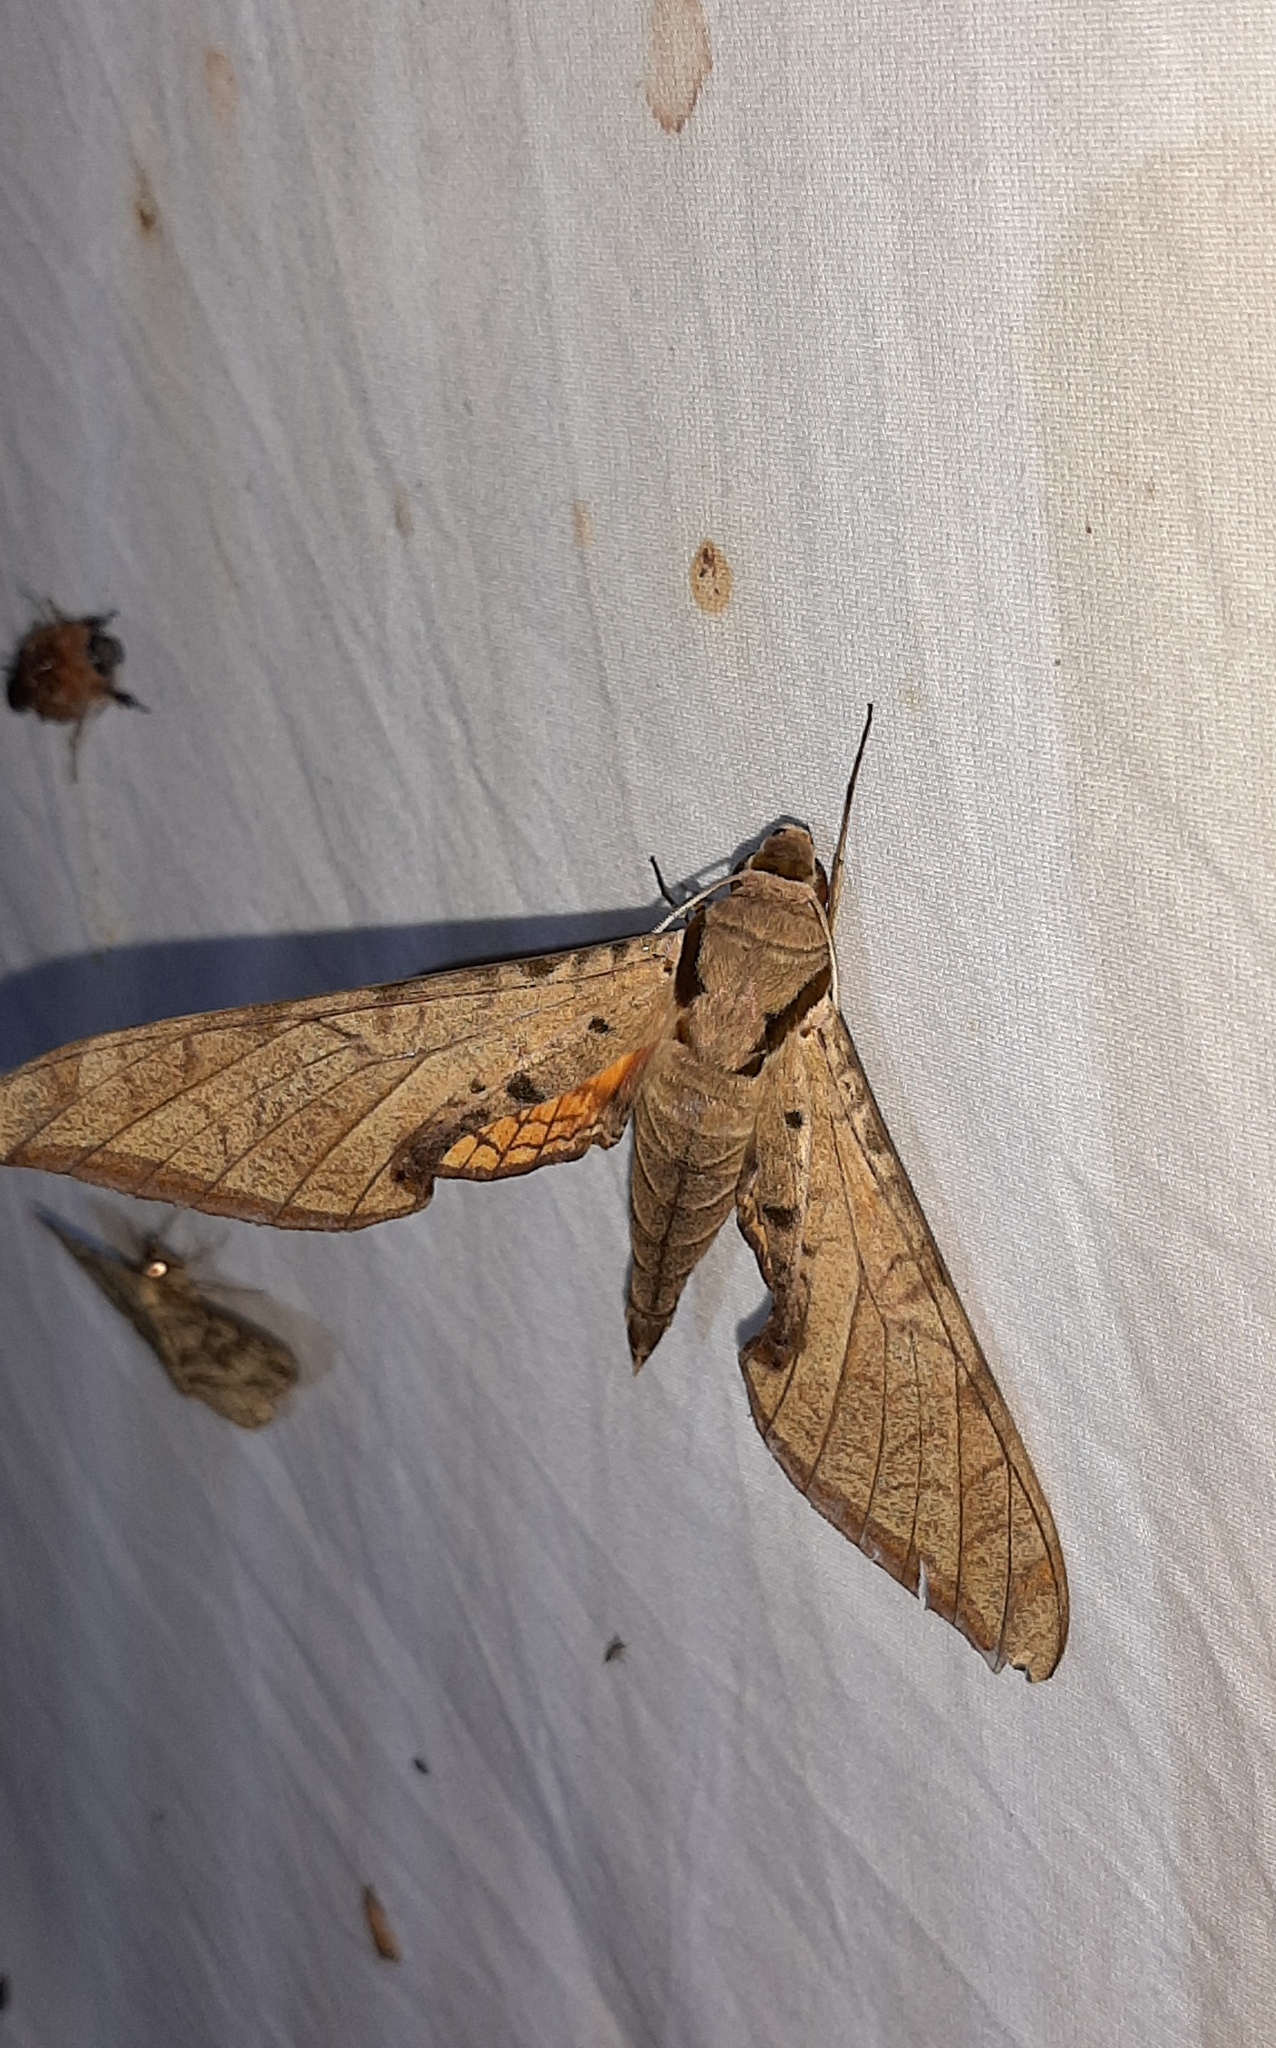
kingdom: Animalia
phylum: Arthropoda
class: Insecta
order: Lepidoptera
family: Sphingidae
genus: Protambulyx
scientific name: Protambulyx strigilis
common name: Streaked sphinx
